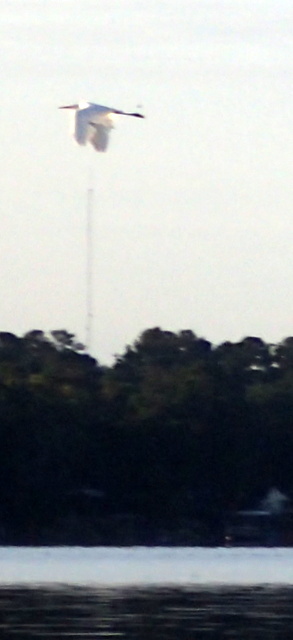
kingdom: Animalia
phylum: Chordata
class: Aves
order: Pelecaniformes
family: Ardeidae
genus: Ardea
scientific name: Ardea alba
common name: Great egret
